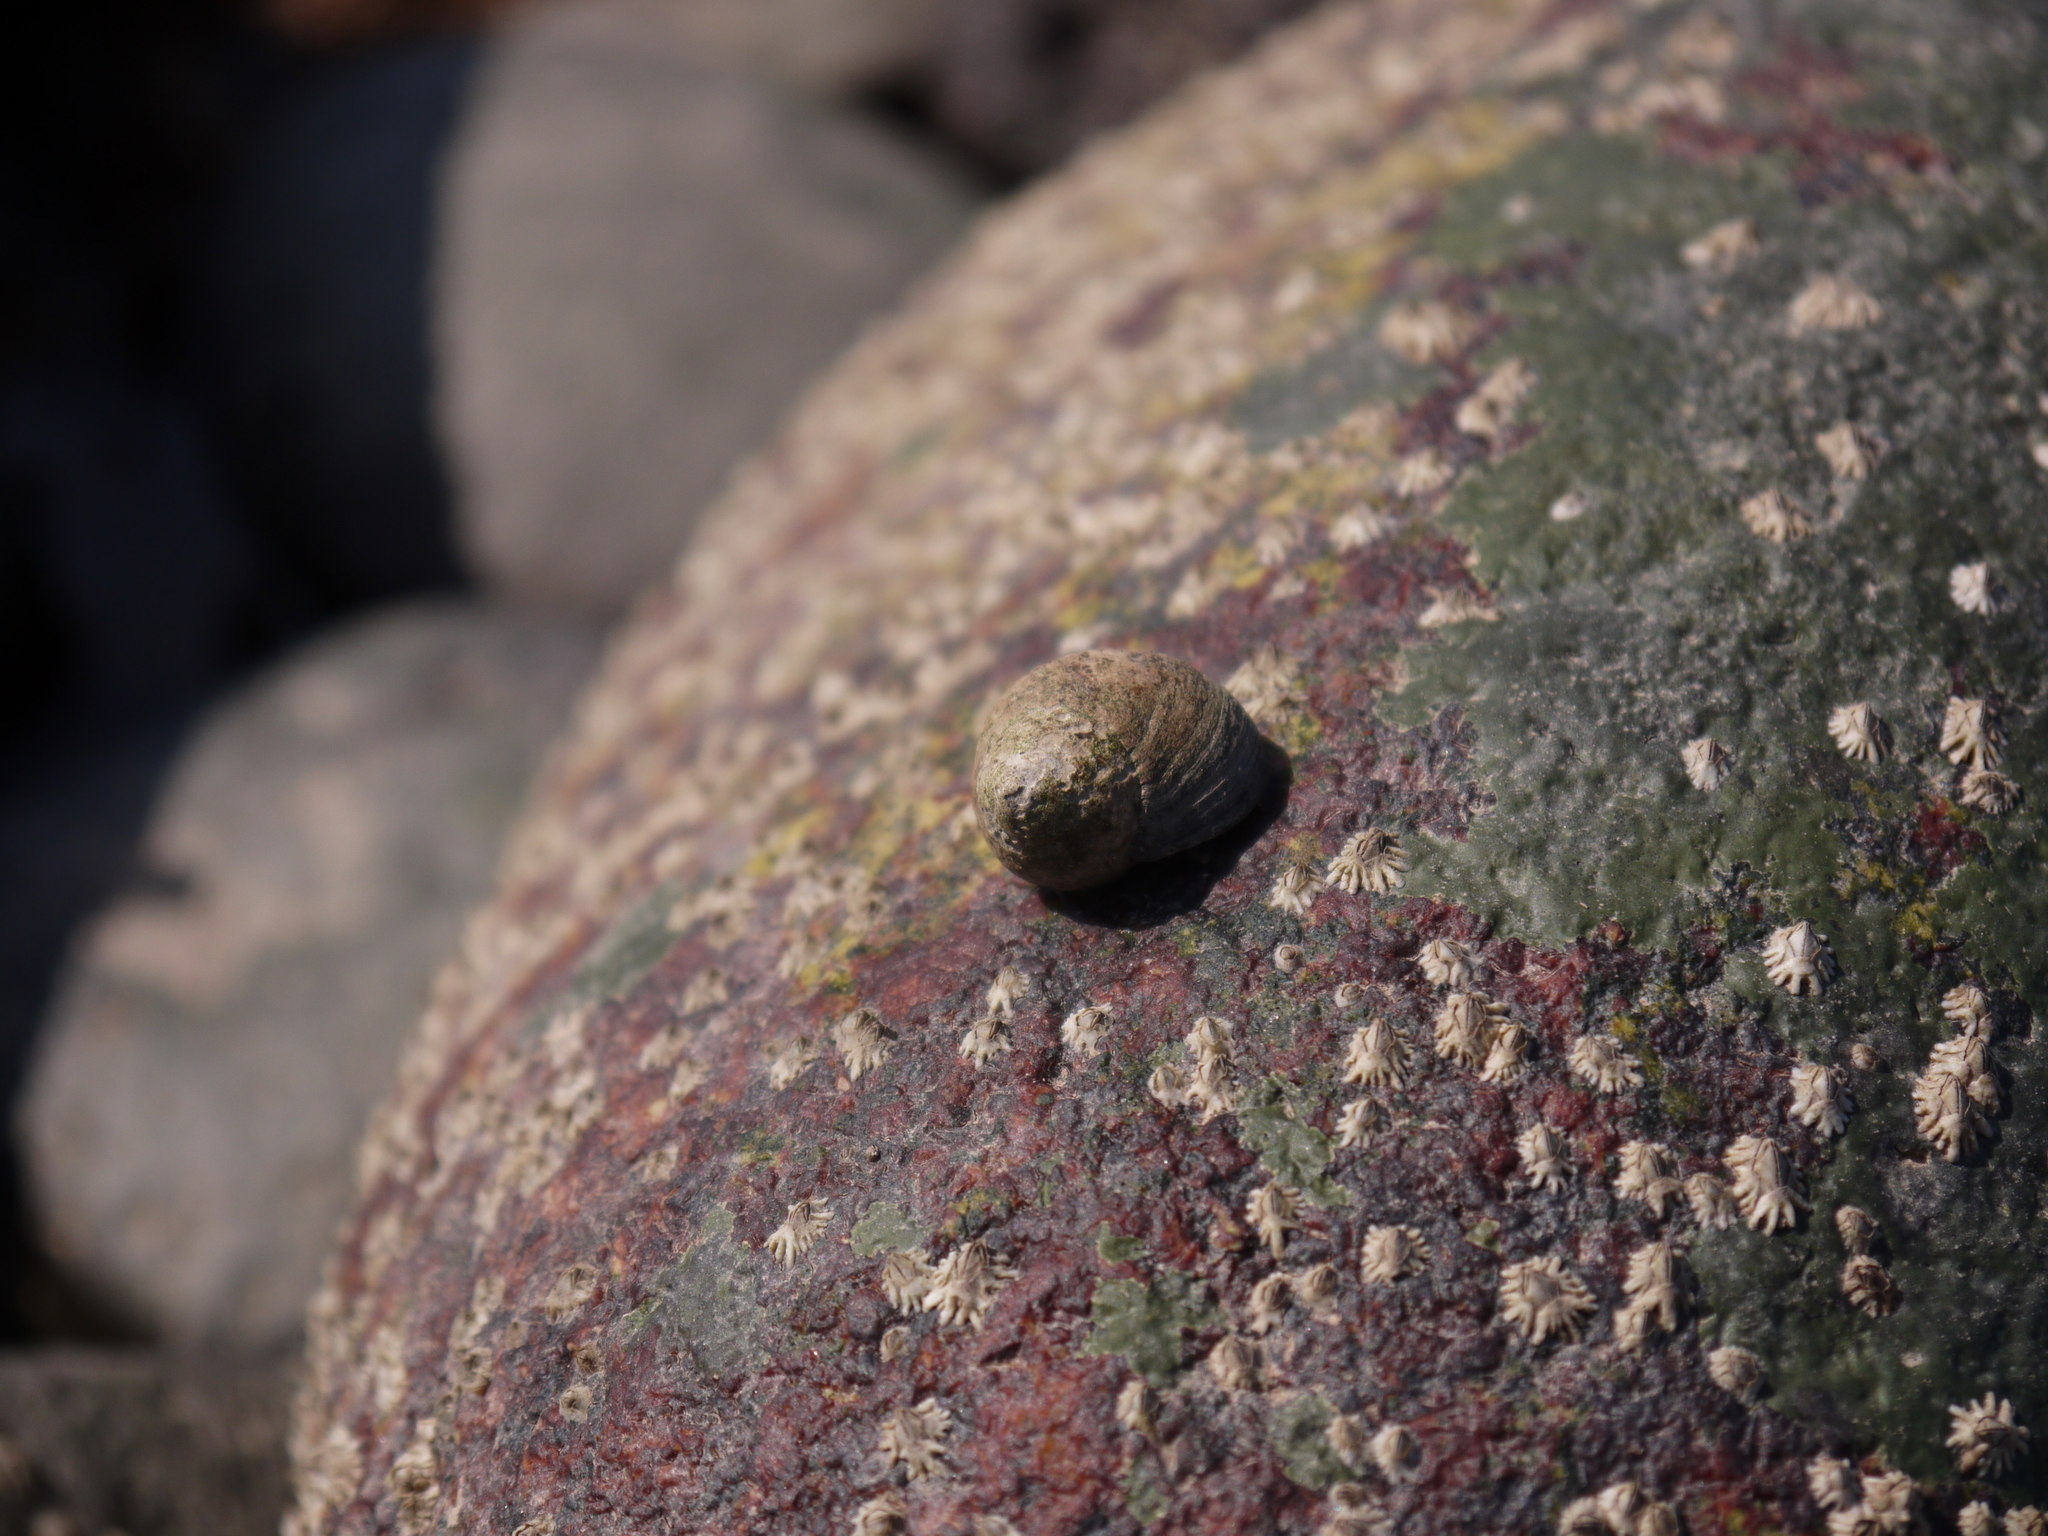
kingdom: Animalia
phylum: Mollusca
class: Gastropoda
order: Littorinimorpha
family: Littorinidae
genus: Littorina
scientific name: Littorina littorea
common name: Common periwinkle
